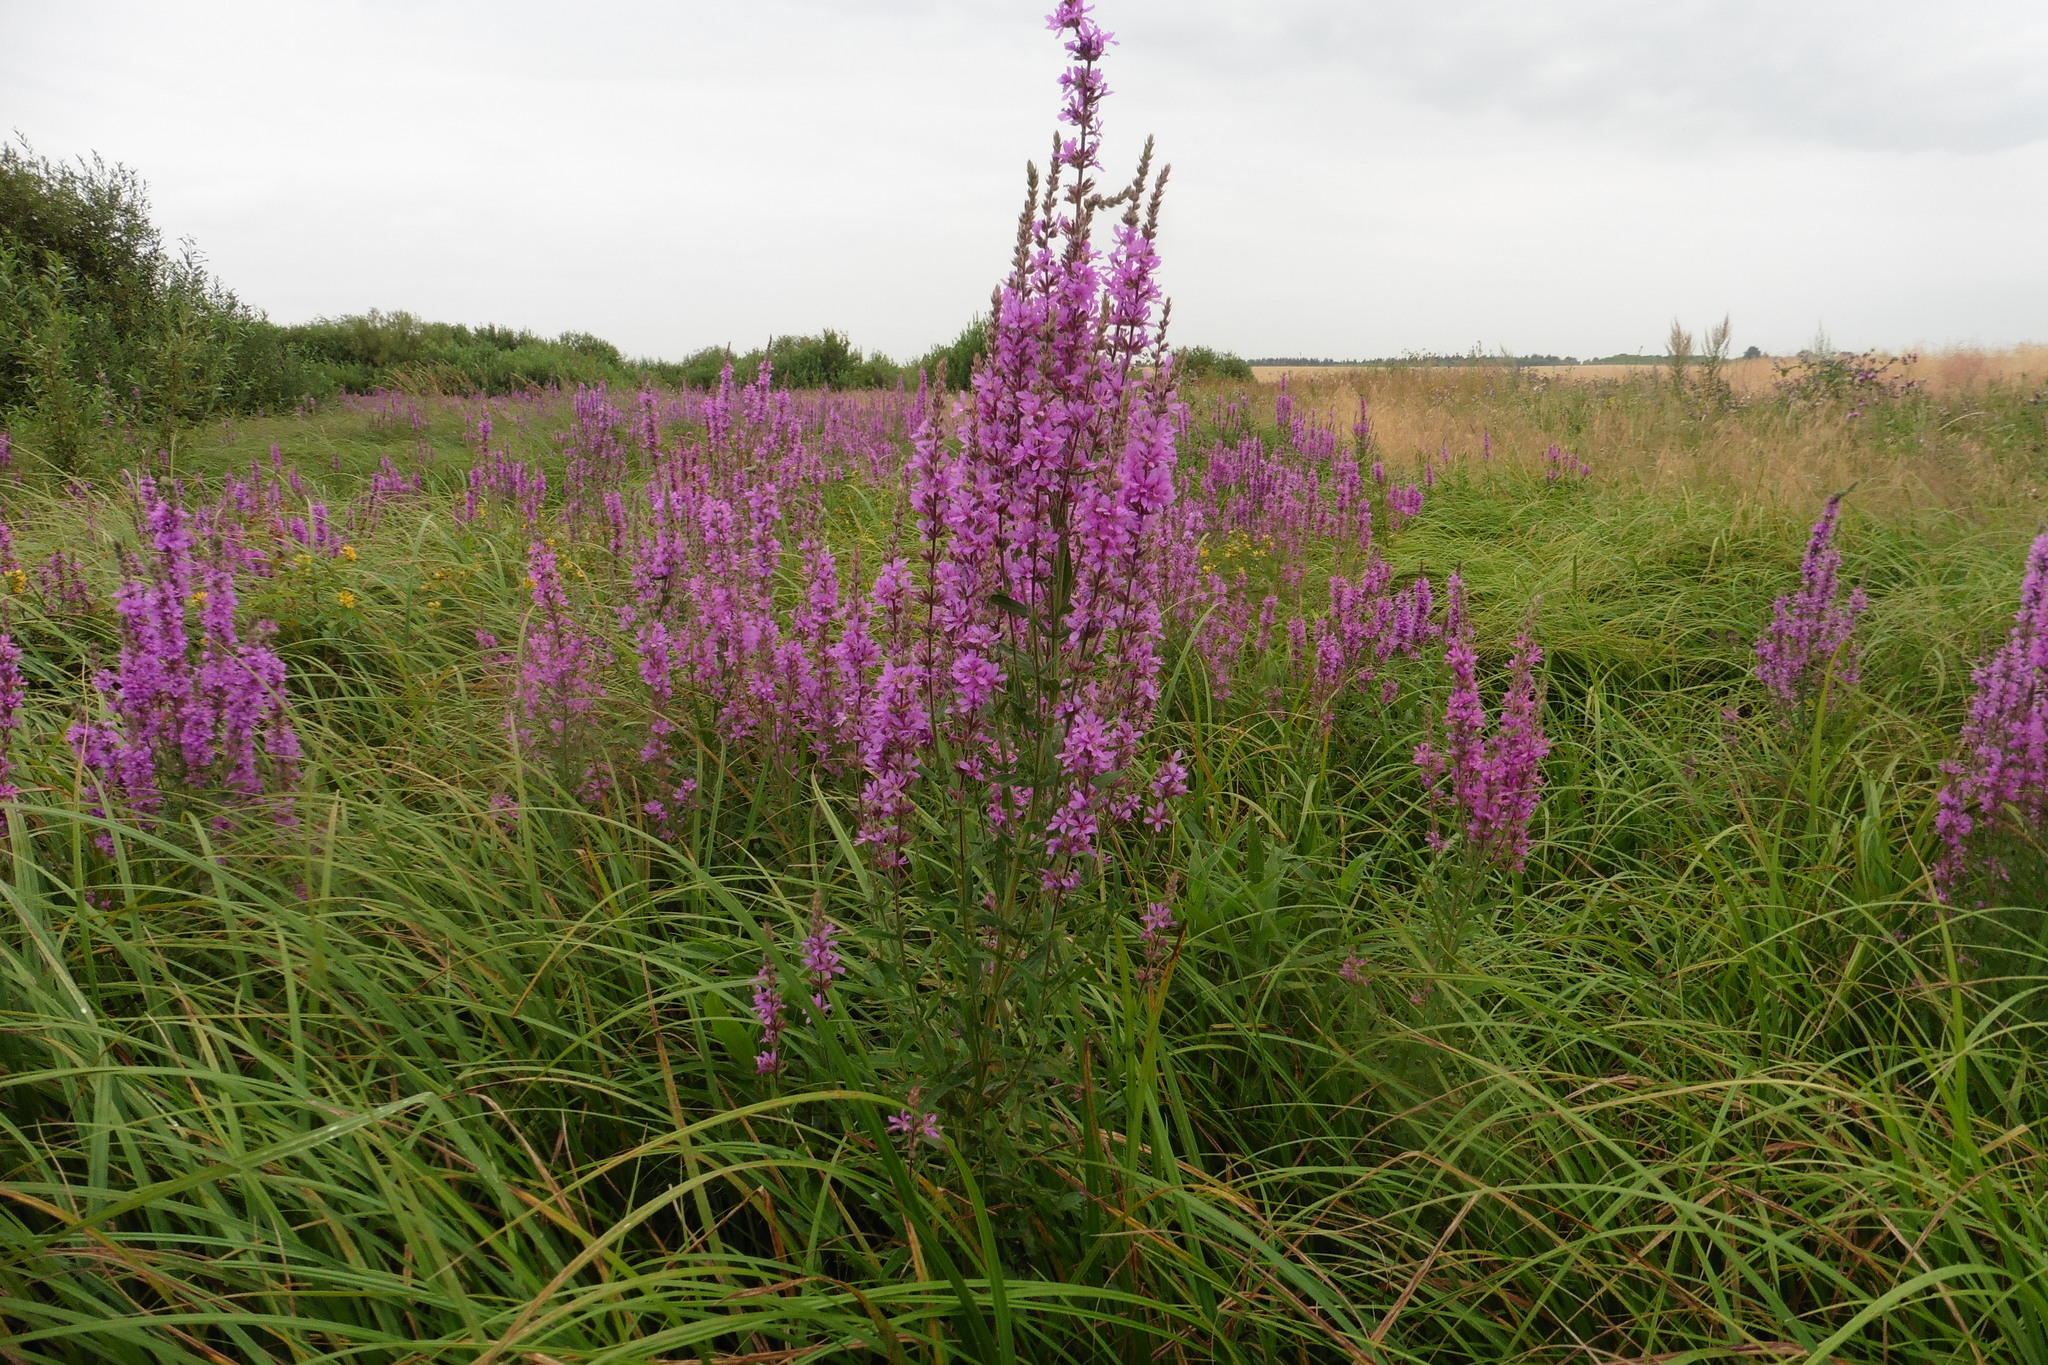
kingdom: Plantae
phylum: Tracheophyta
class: Magnoliopsida
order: Myrtales
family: Lythraceae
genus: Lythrum
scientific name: Lythrum salicaria
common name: Purple loosestrife
